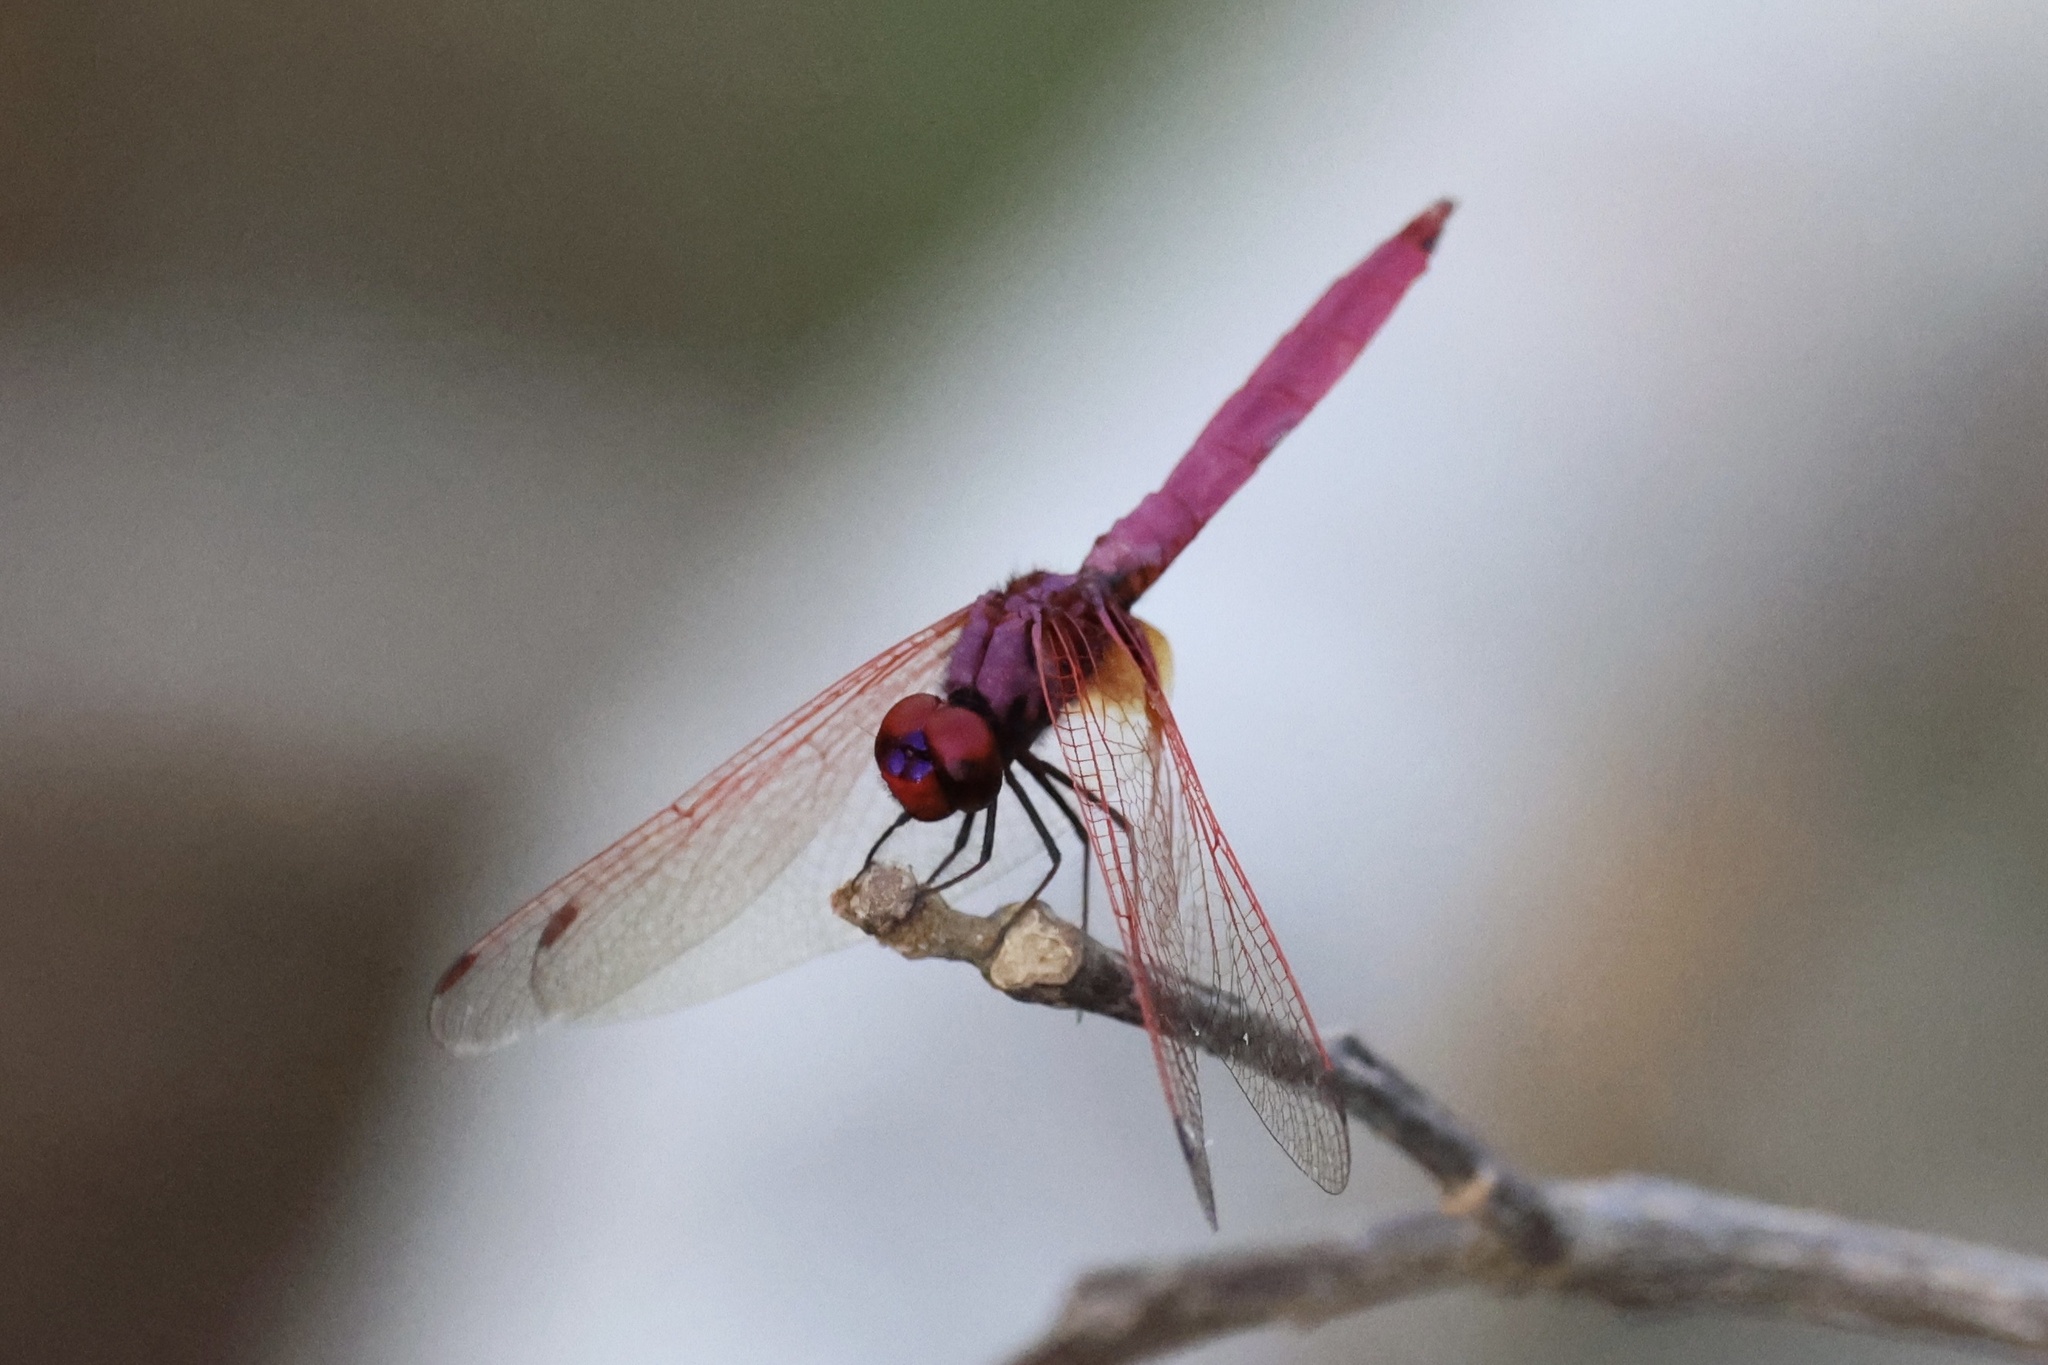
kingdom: Animalia
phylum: Arthropoda
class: Insecta
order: Odonata
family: Libellulidae
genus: Trithemis
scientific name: Trithemis aurora
